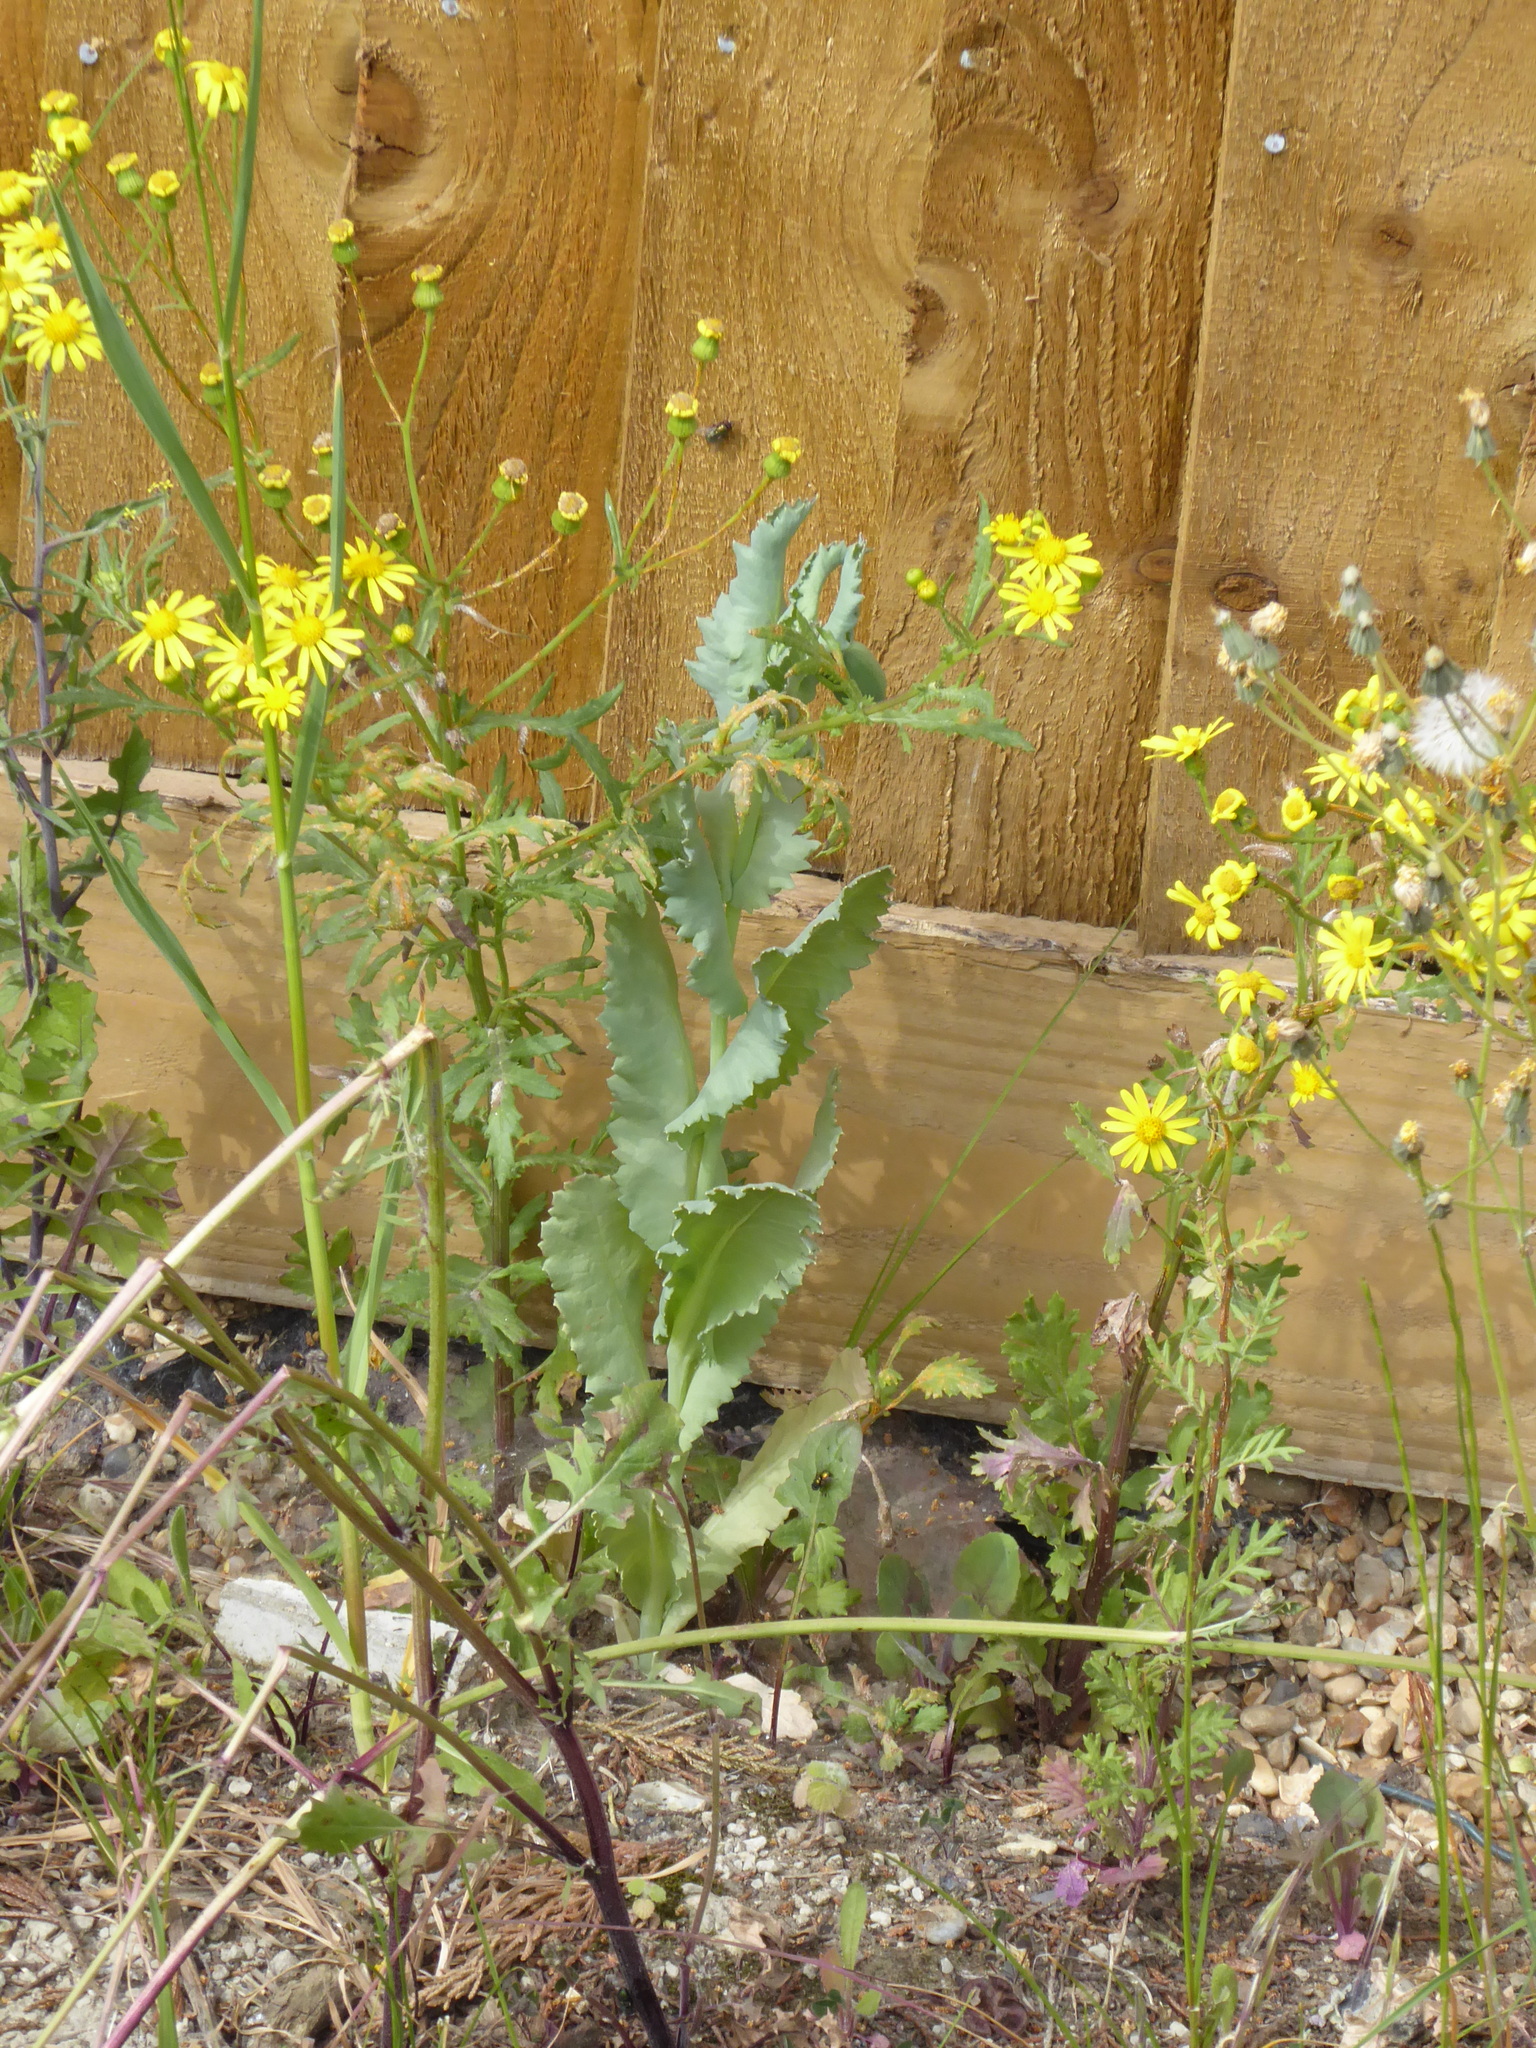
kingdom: Plantae
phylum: Tracheophyta
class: Magnoliopsida
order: Ranunculales
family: Papaveraceae
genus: Papaver
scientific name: Papaver somniferum
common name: Opium poppy
